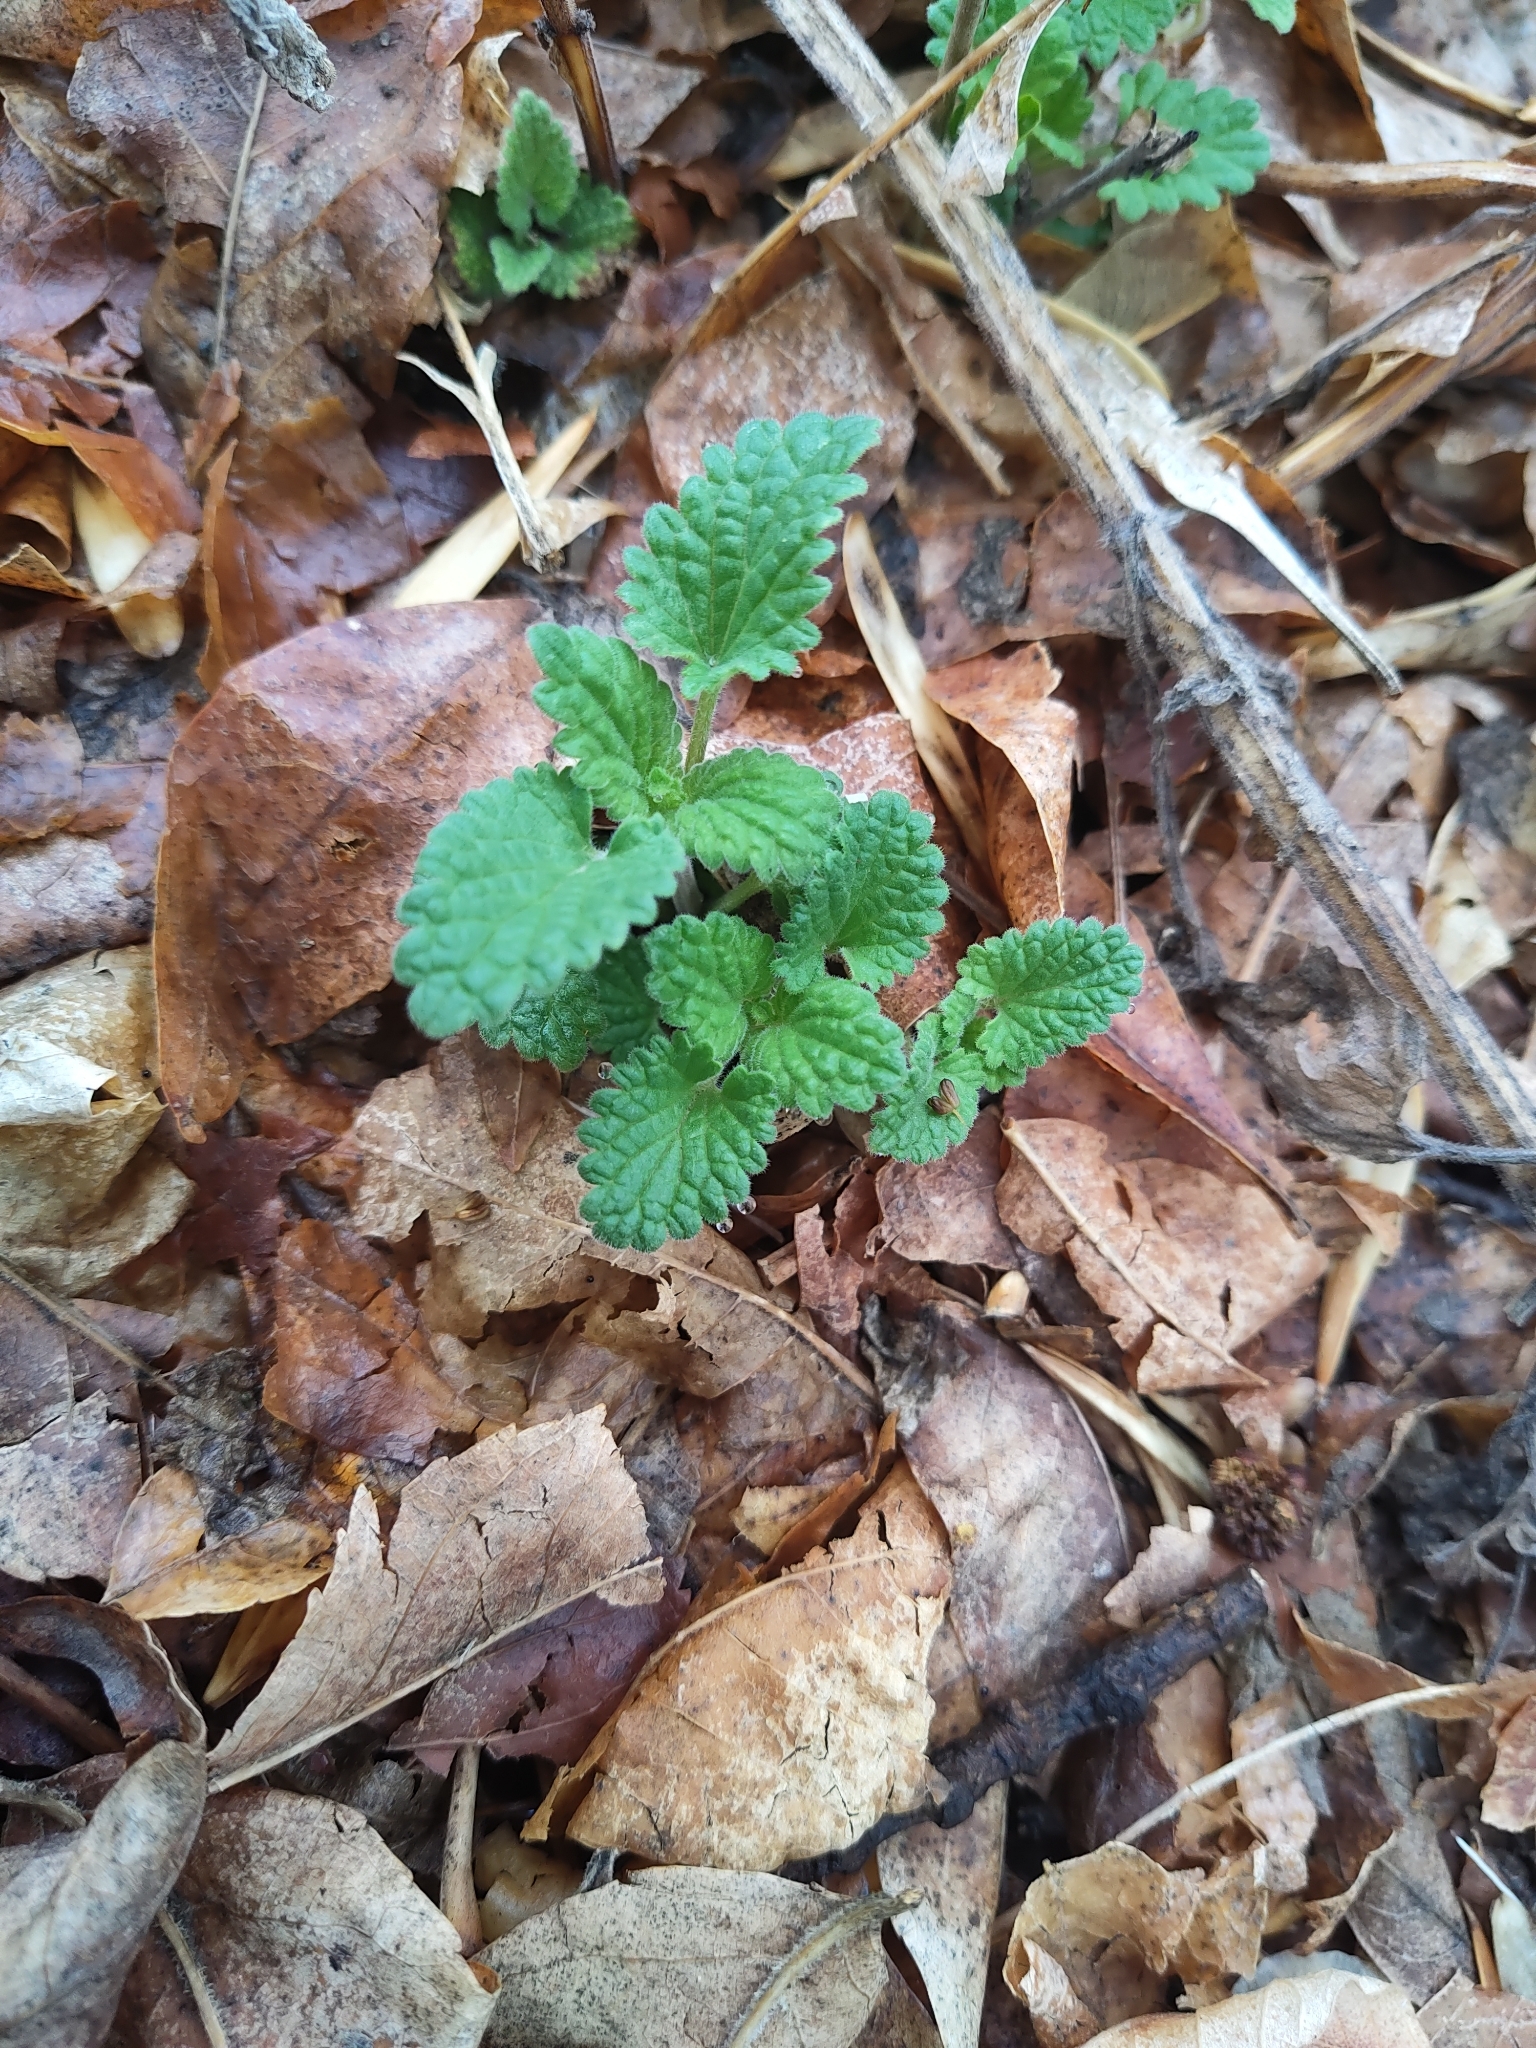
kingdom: Plantae
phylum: Tracheophyta
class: Magnoliopsida
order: Lamiales
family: Lamiaceae
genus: Nepeta
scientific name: Nepeta cataria
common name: Catnip
